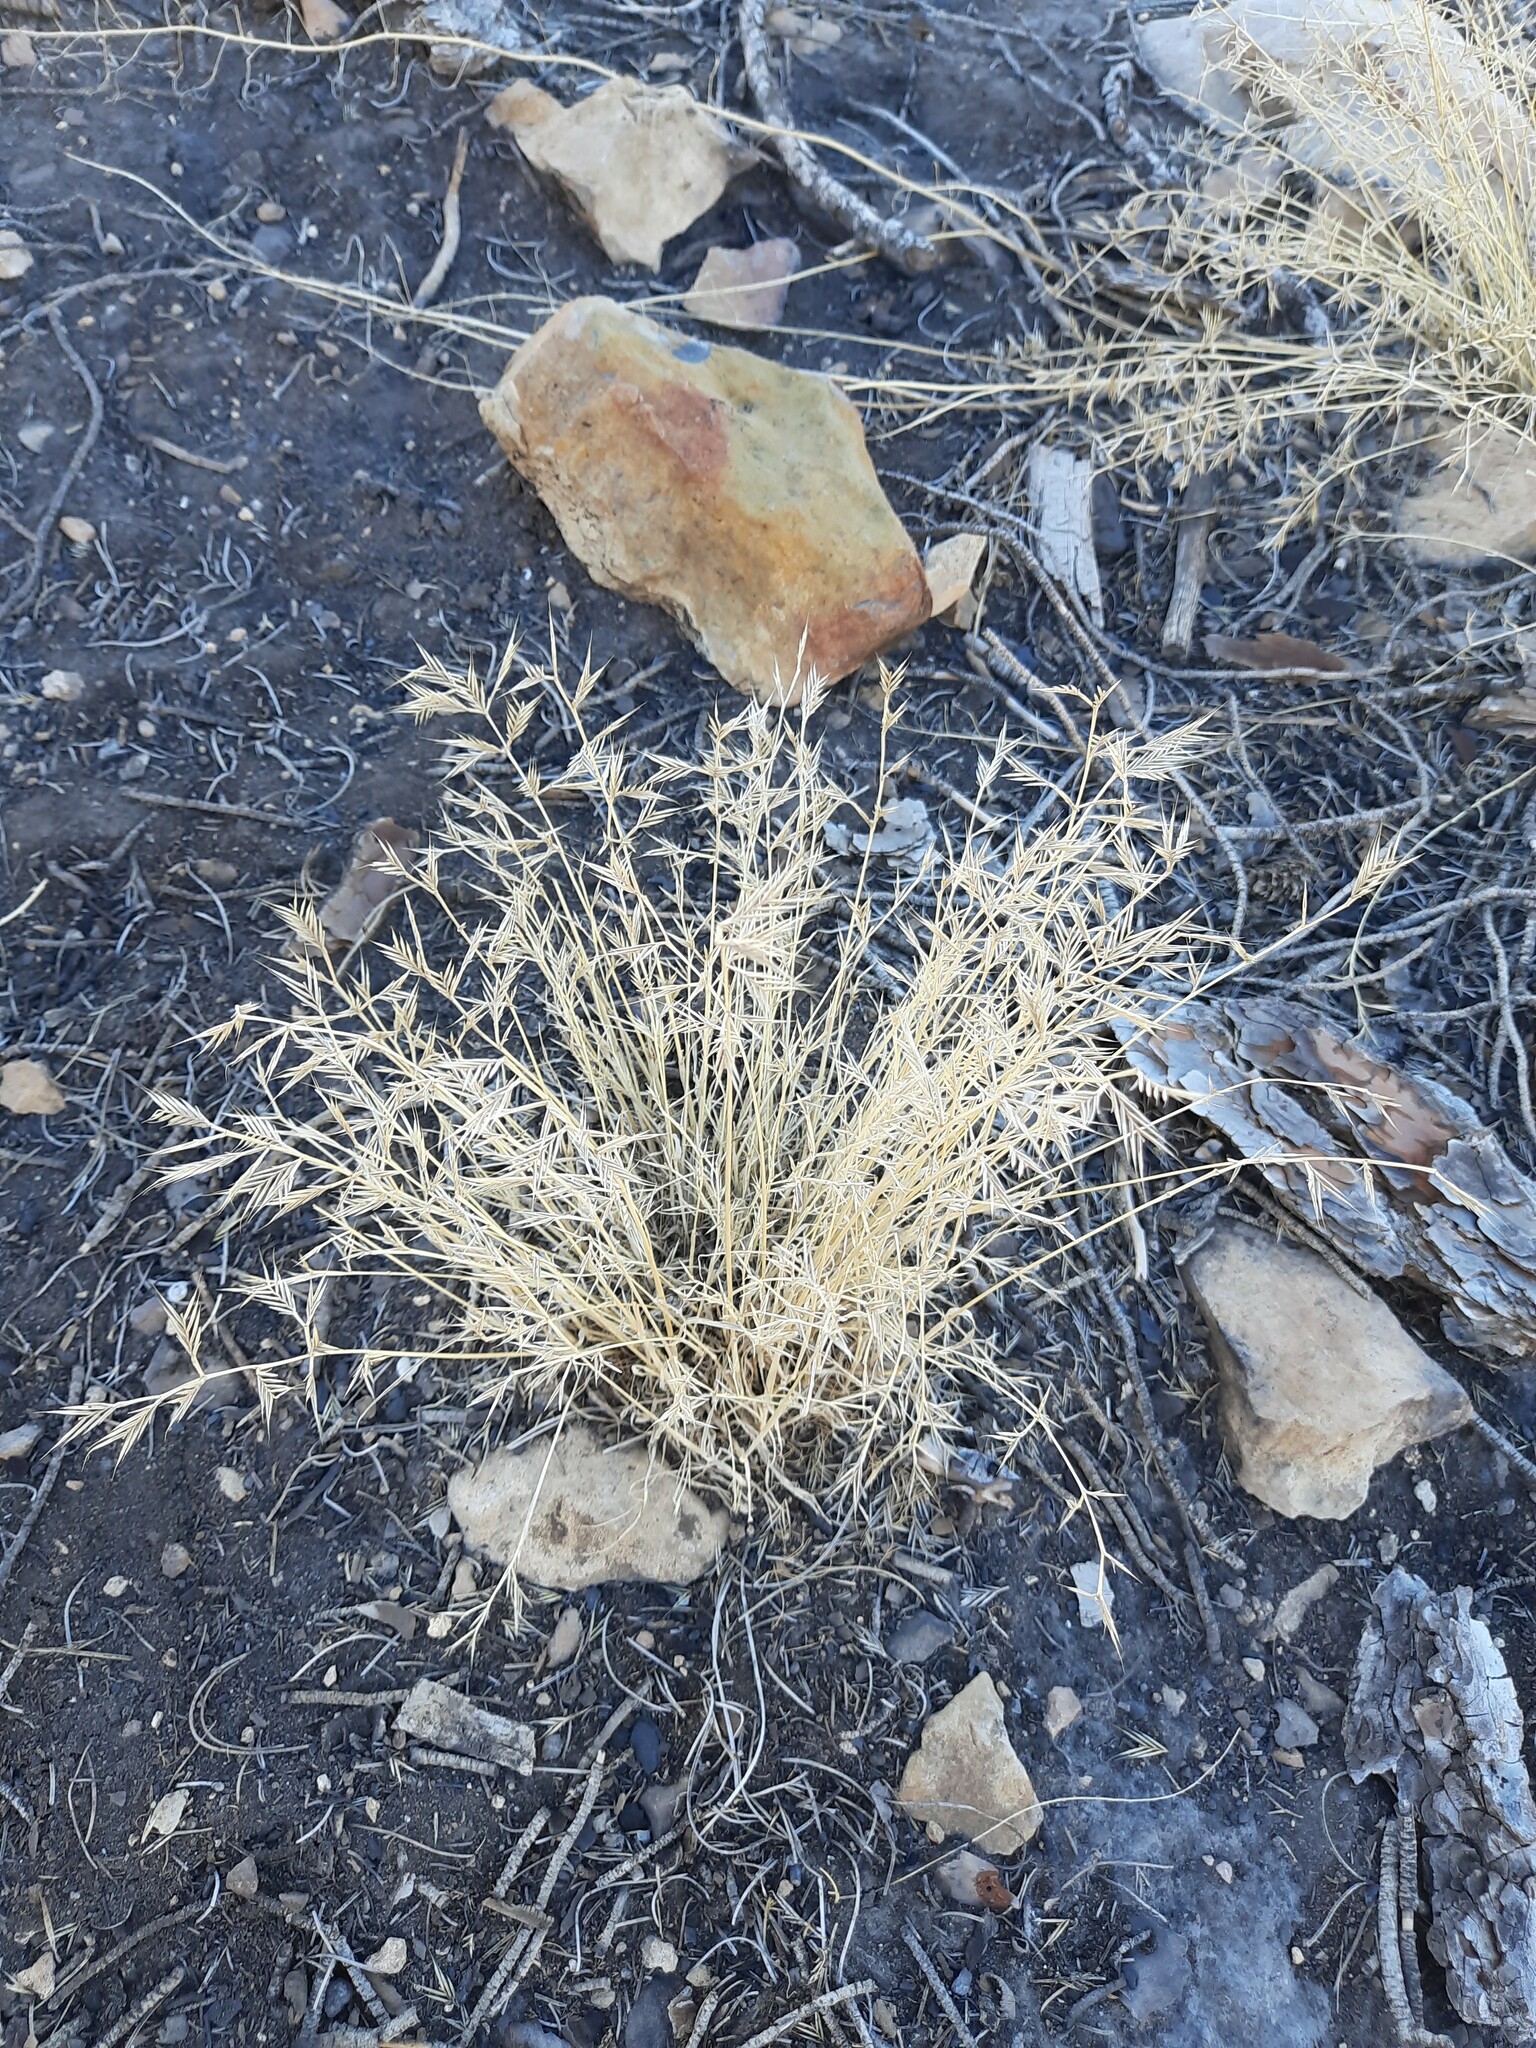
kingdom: Plantae
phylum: Tracheophyta
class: Liliopsida
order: Poales
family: Poaceae
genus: Vulpiella
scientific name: Vulpiella stipoides
